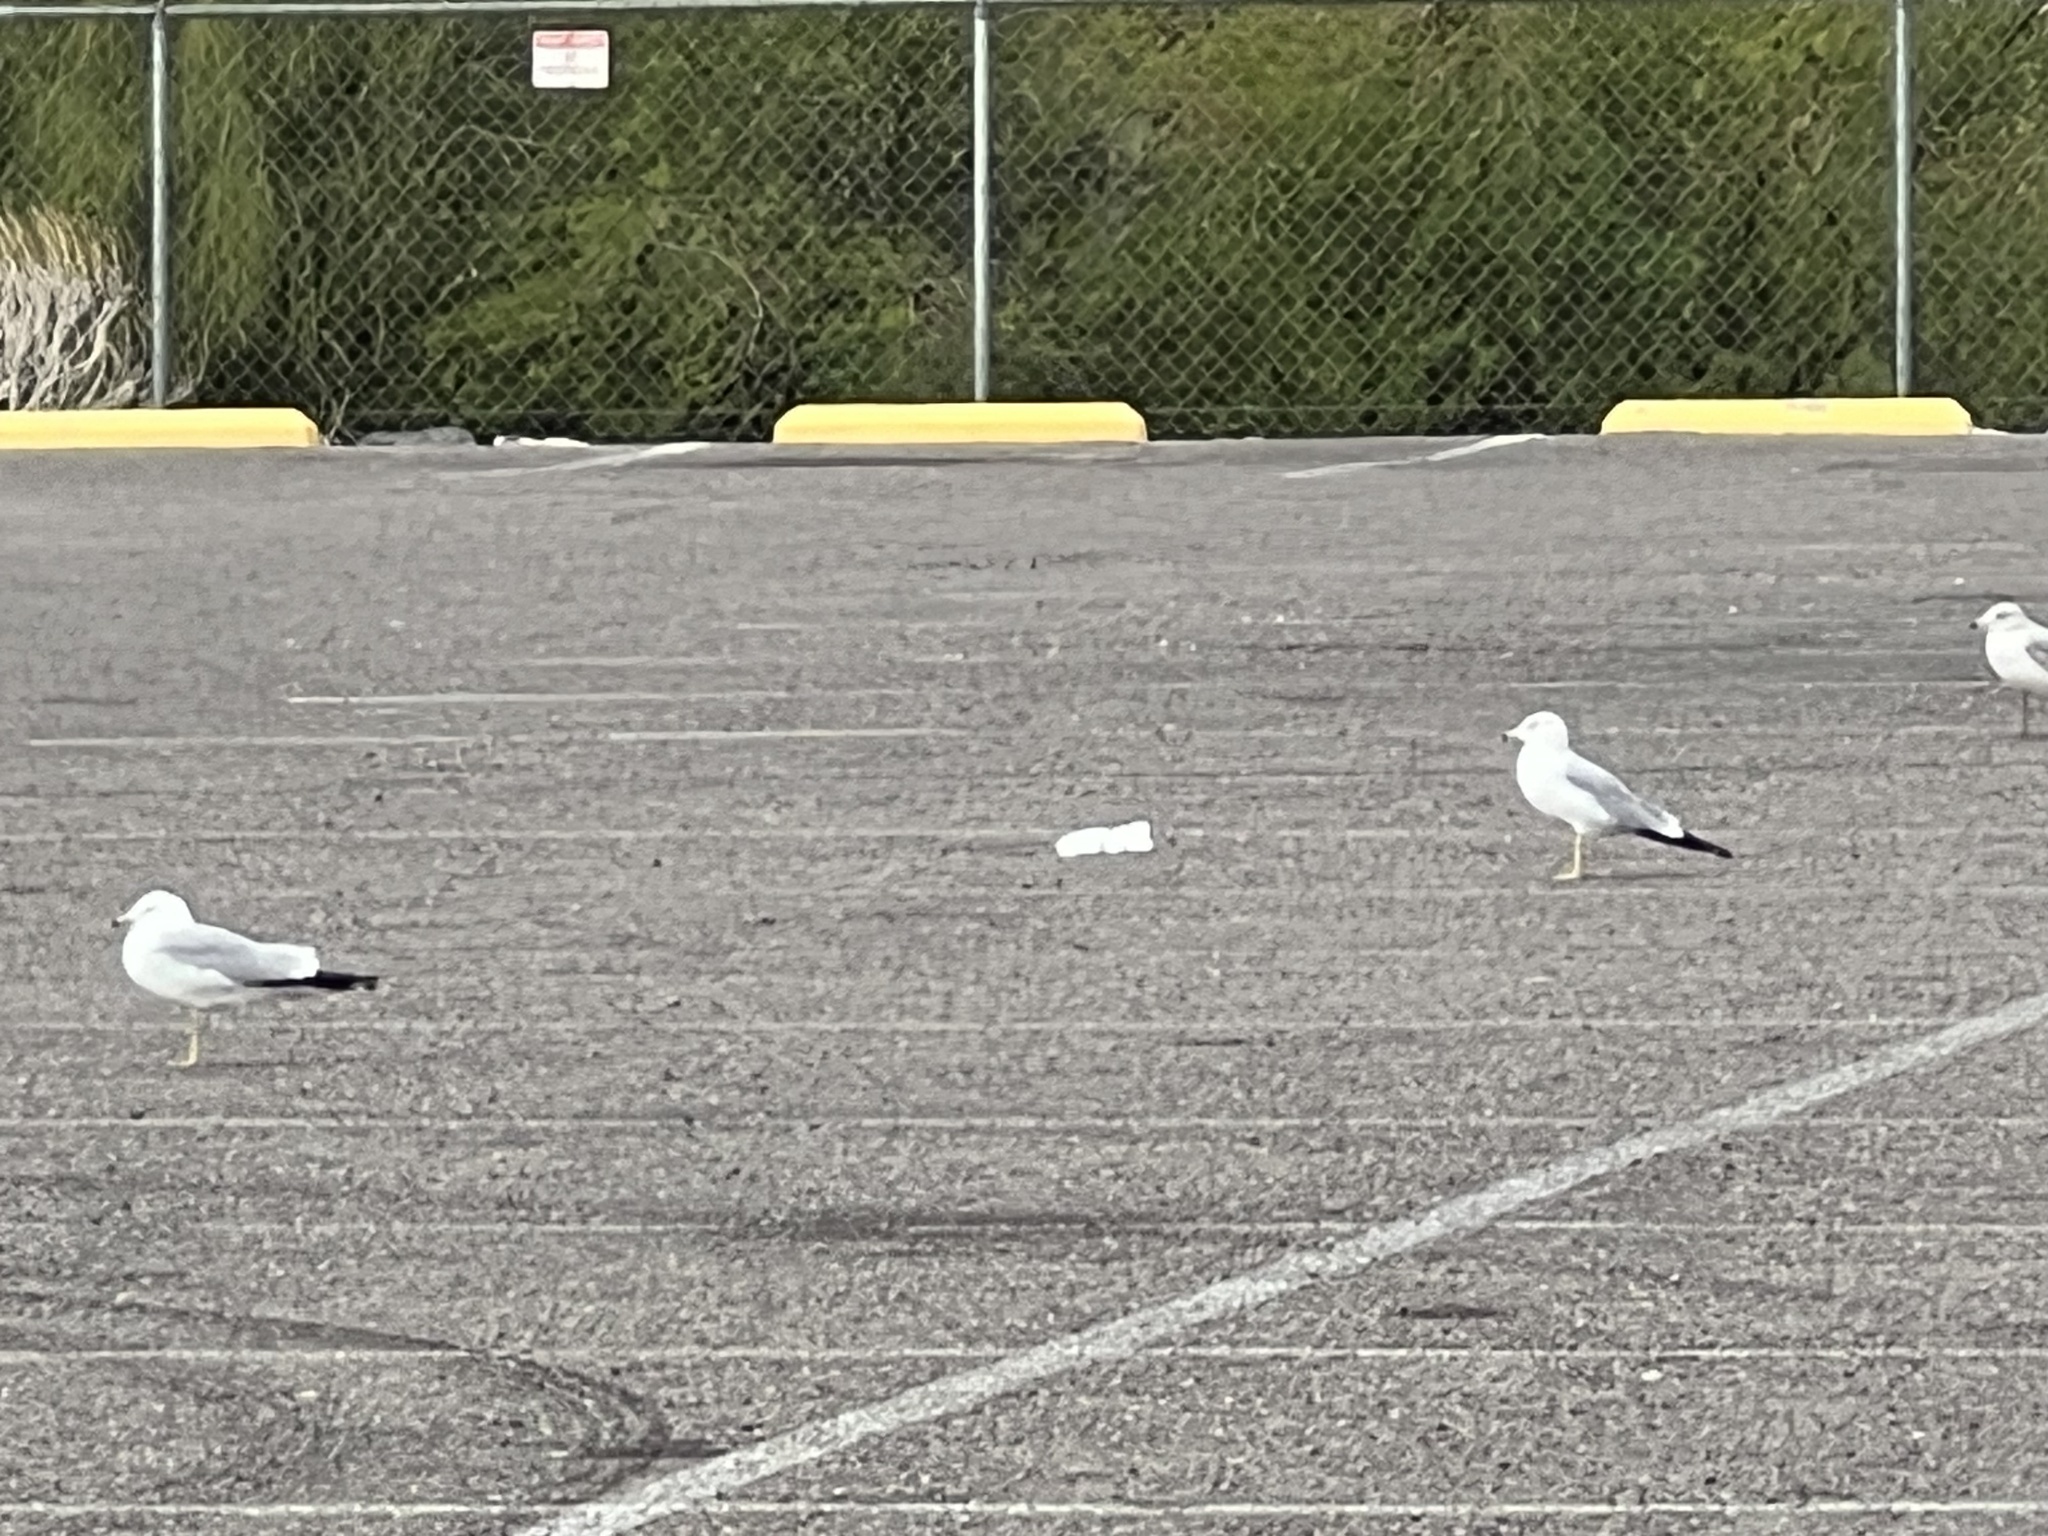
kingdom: Animalia
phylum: Chordata
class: Aves
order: Charadriiformes
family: Laridae
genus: Larus
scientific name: Larus delawarensis
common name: Ring-billed gull
